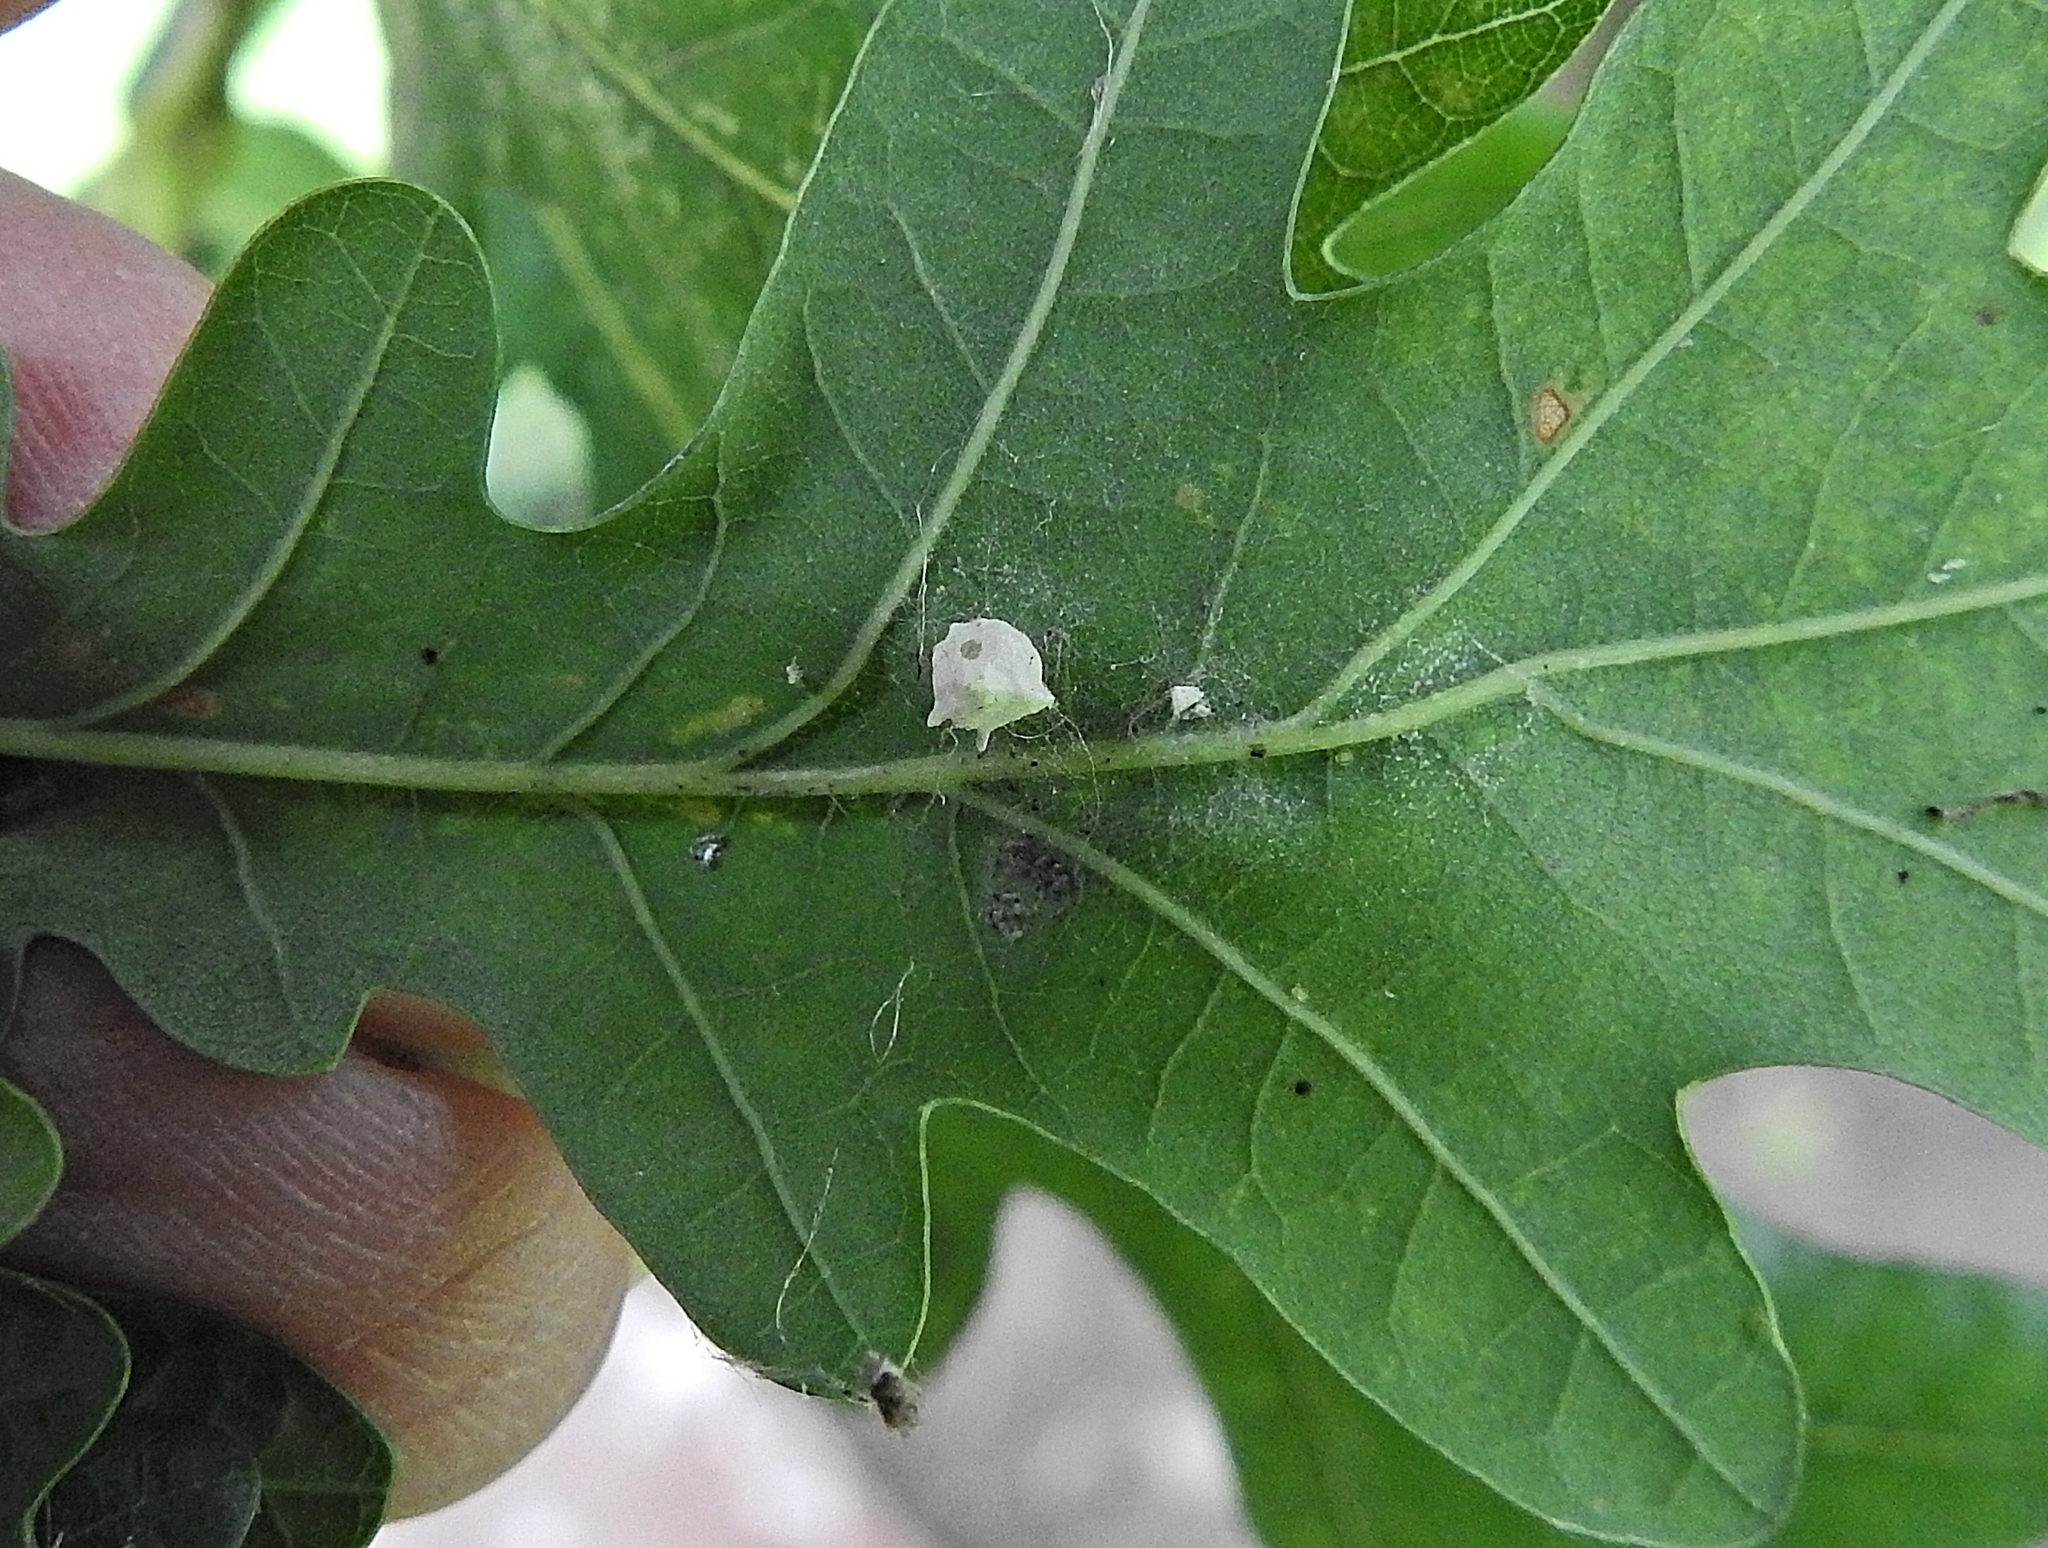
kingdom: Animalia
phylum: Arthropoda
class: Arachnida
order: Araneae
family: Theridiidae
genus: Paidiscura
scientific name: Paidiscura pallens
